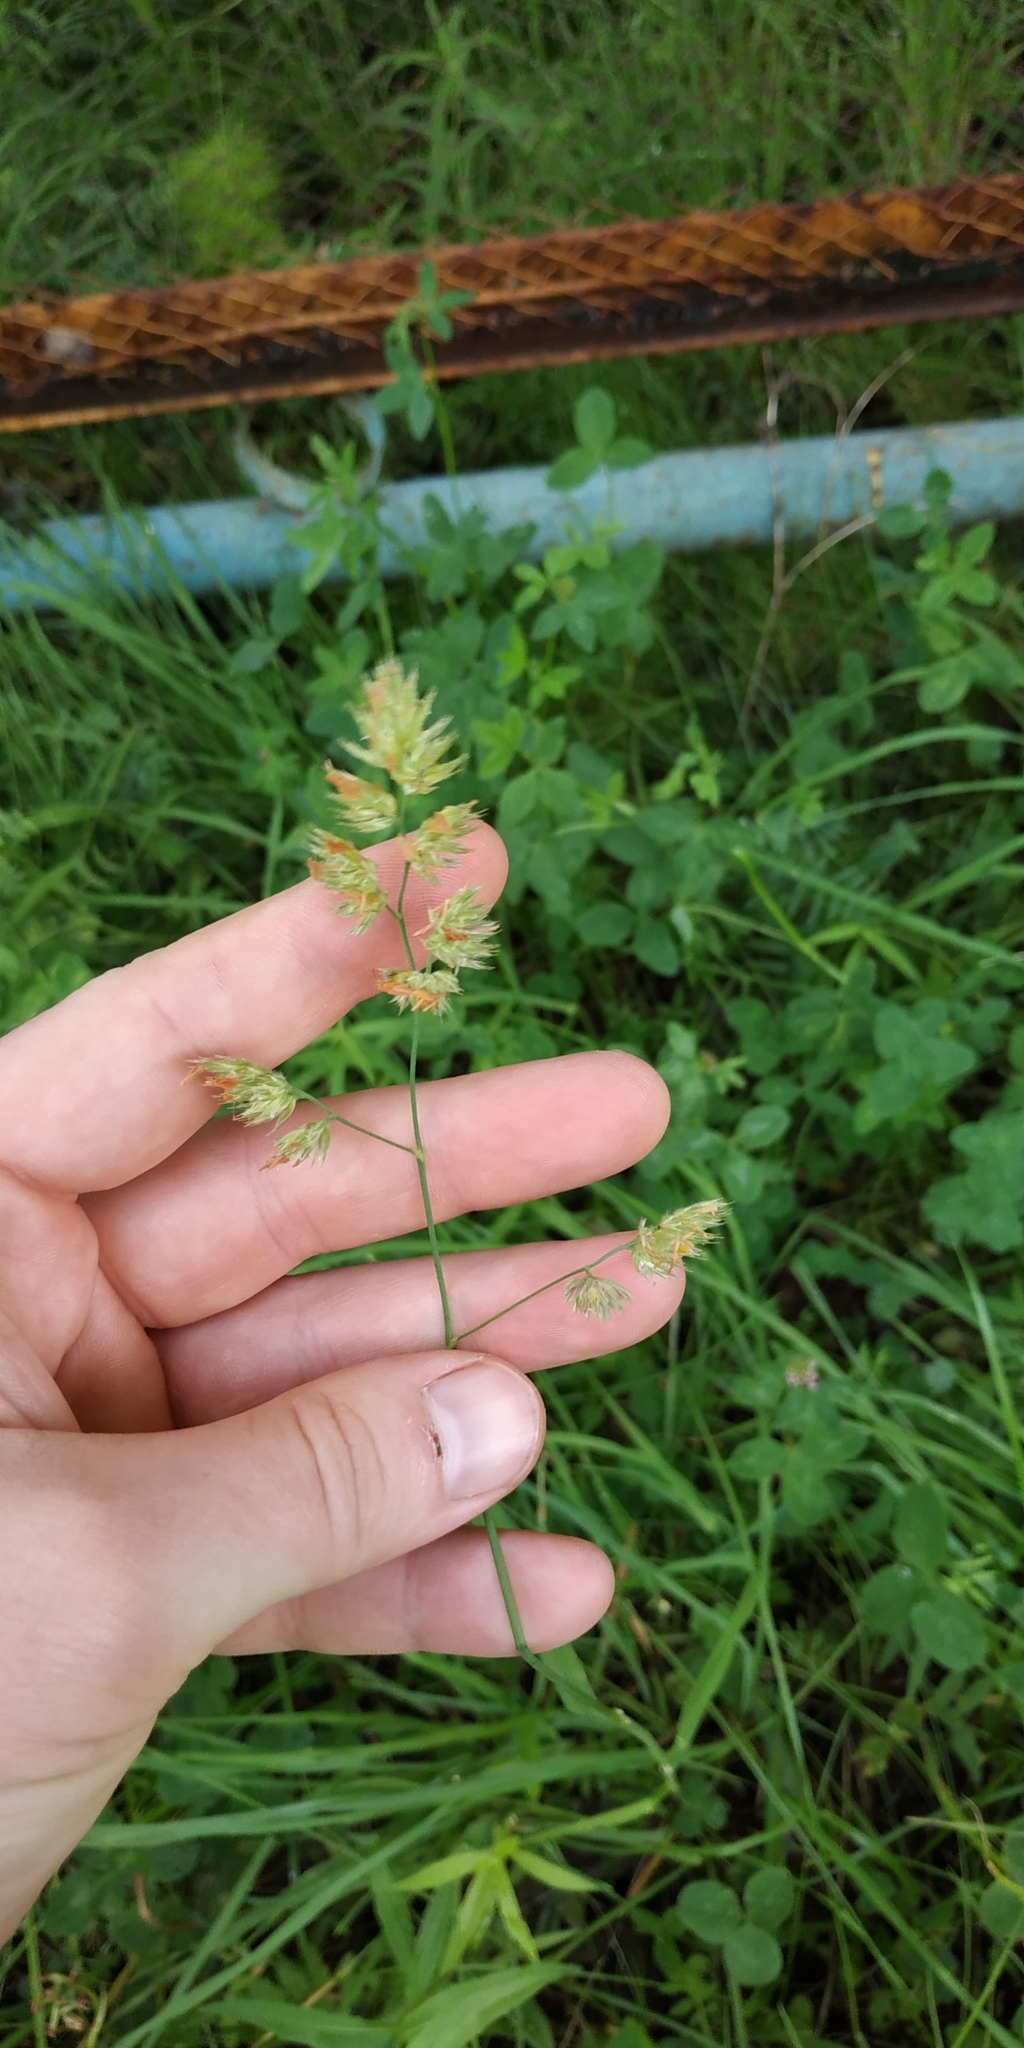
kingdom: Plantae
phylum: Tracheophyta
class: Liliopsida
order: Poales
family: Poaceae
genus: Dactylis
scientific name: Dactylis glomerata
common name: Orchardgrass
